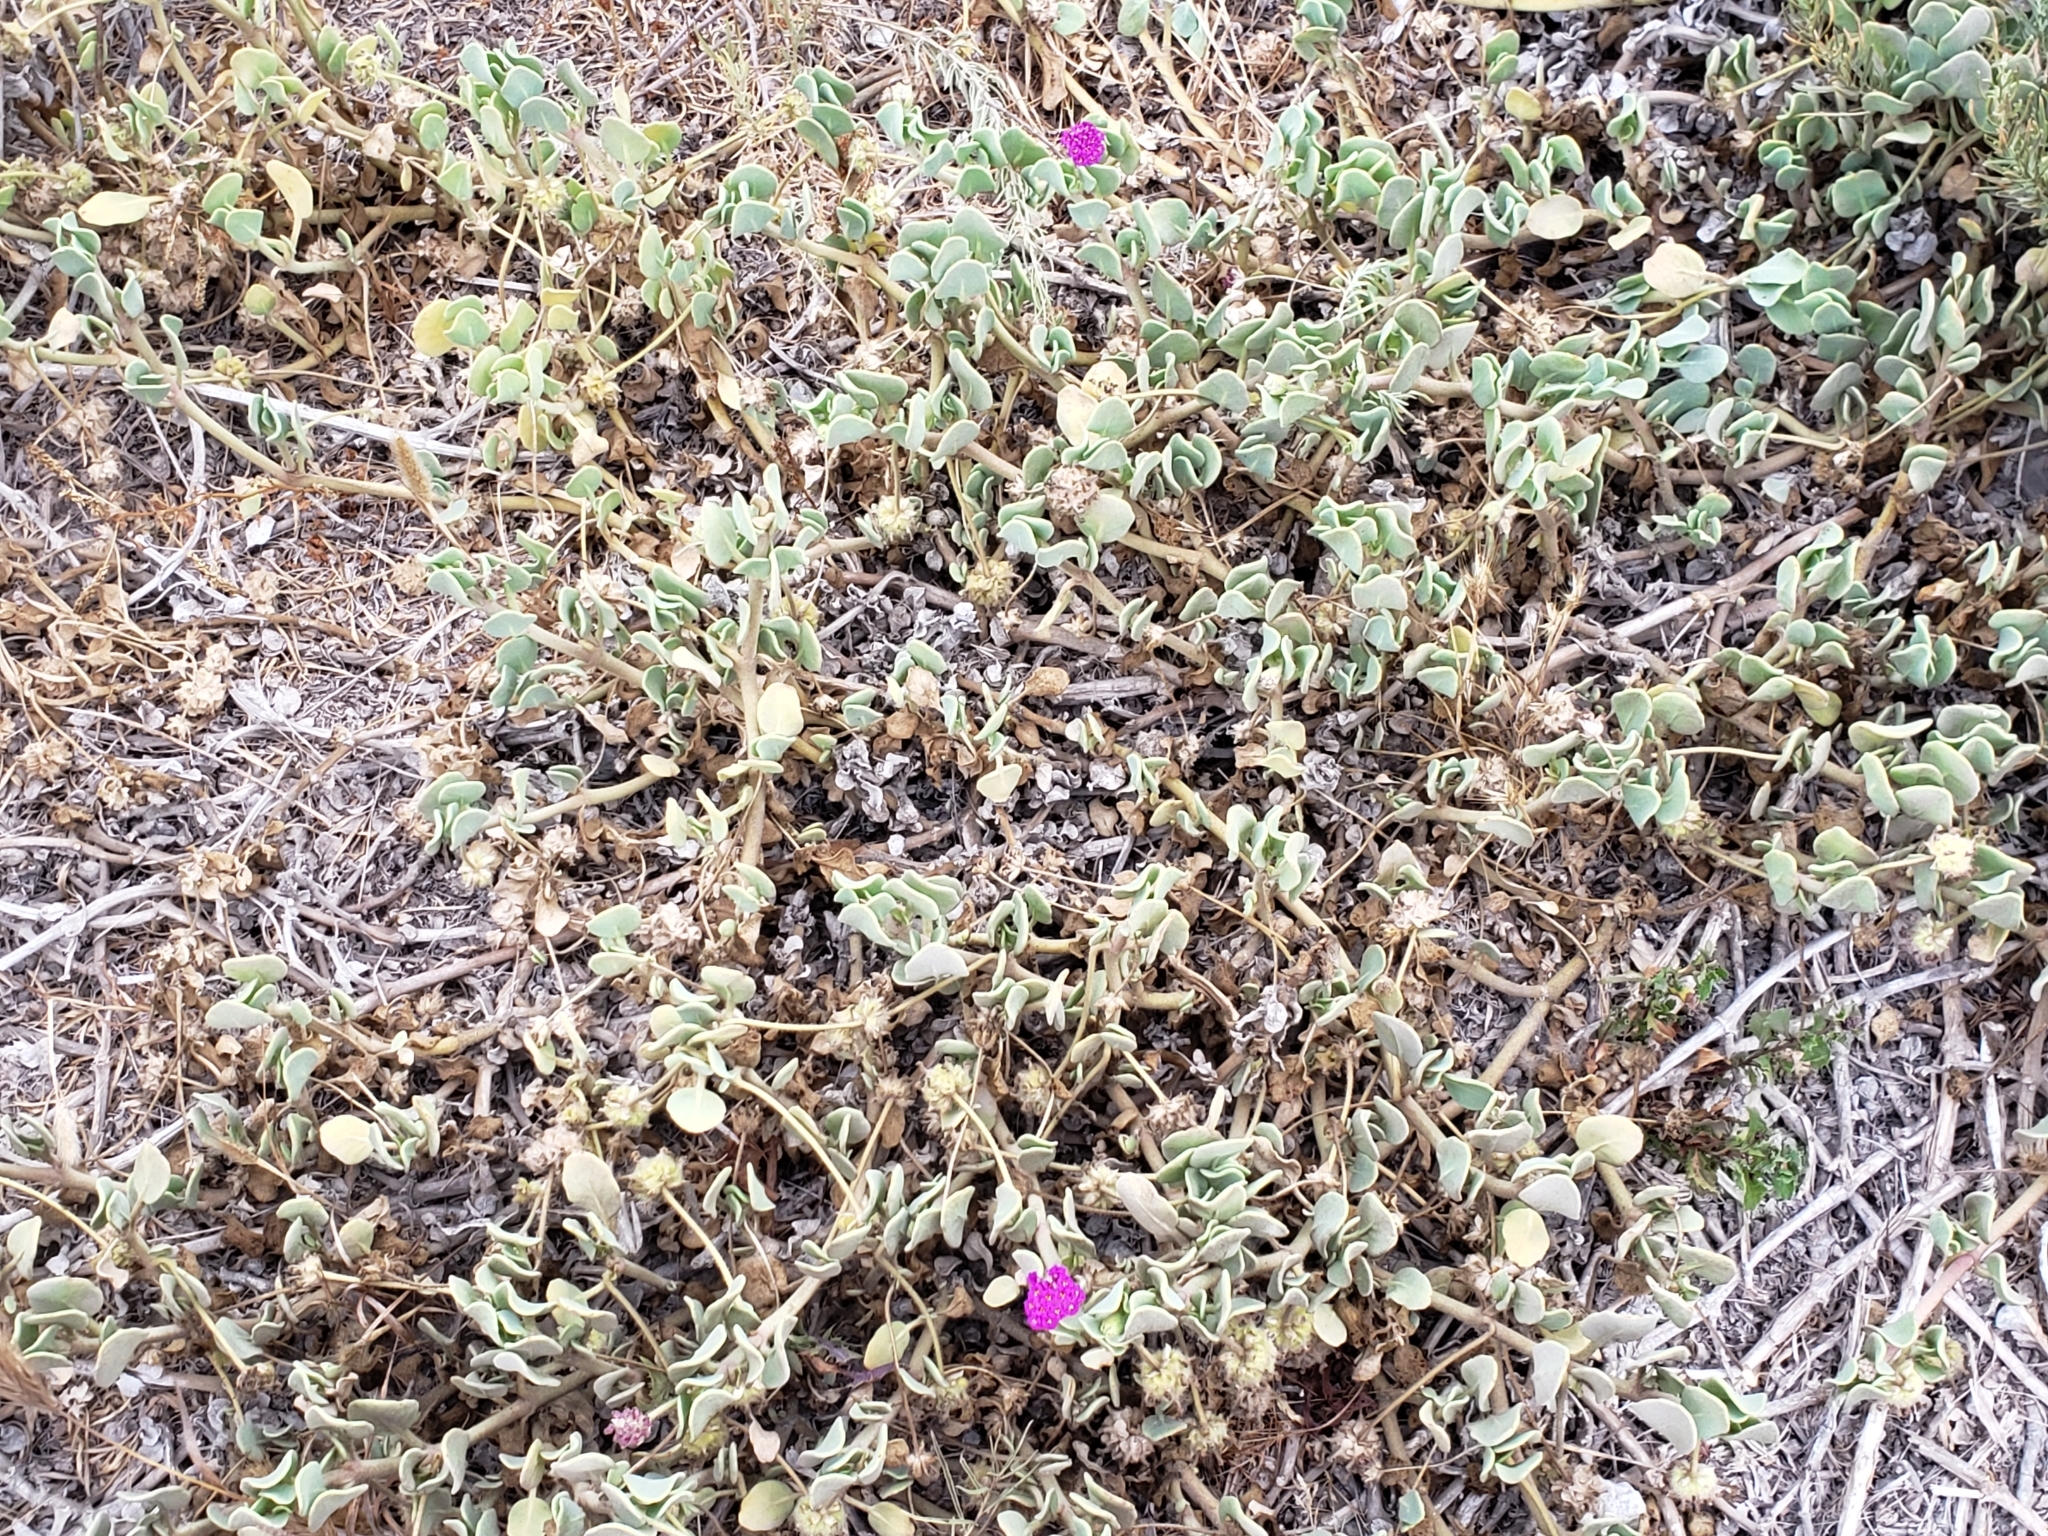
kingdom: Plantae
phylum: Tracheophyta
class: Magnoliopsida
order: Caryophyllales
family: Nyctaginaceae
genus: Abronia
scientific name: Abronia maritima
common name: Red sand-verbena
